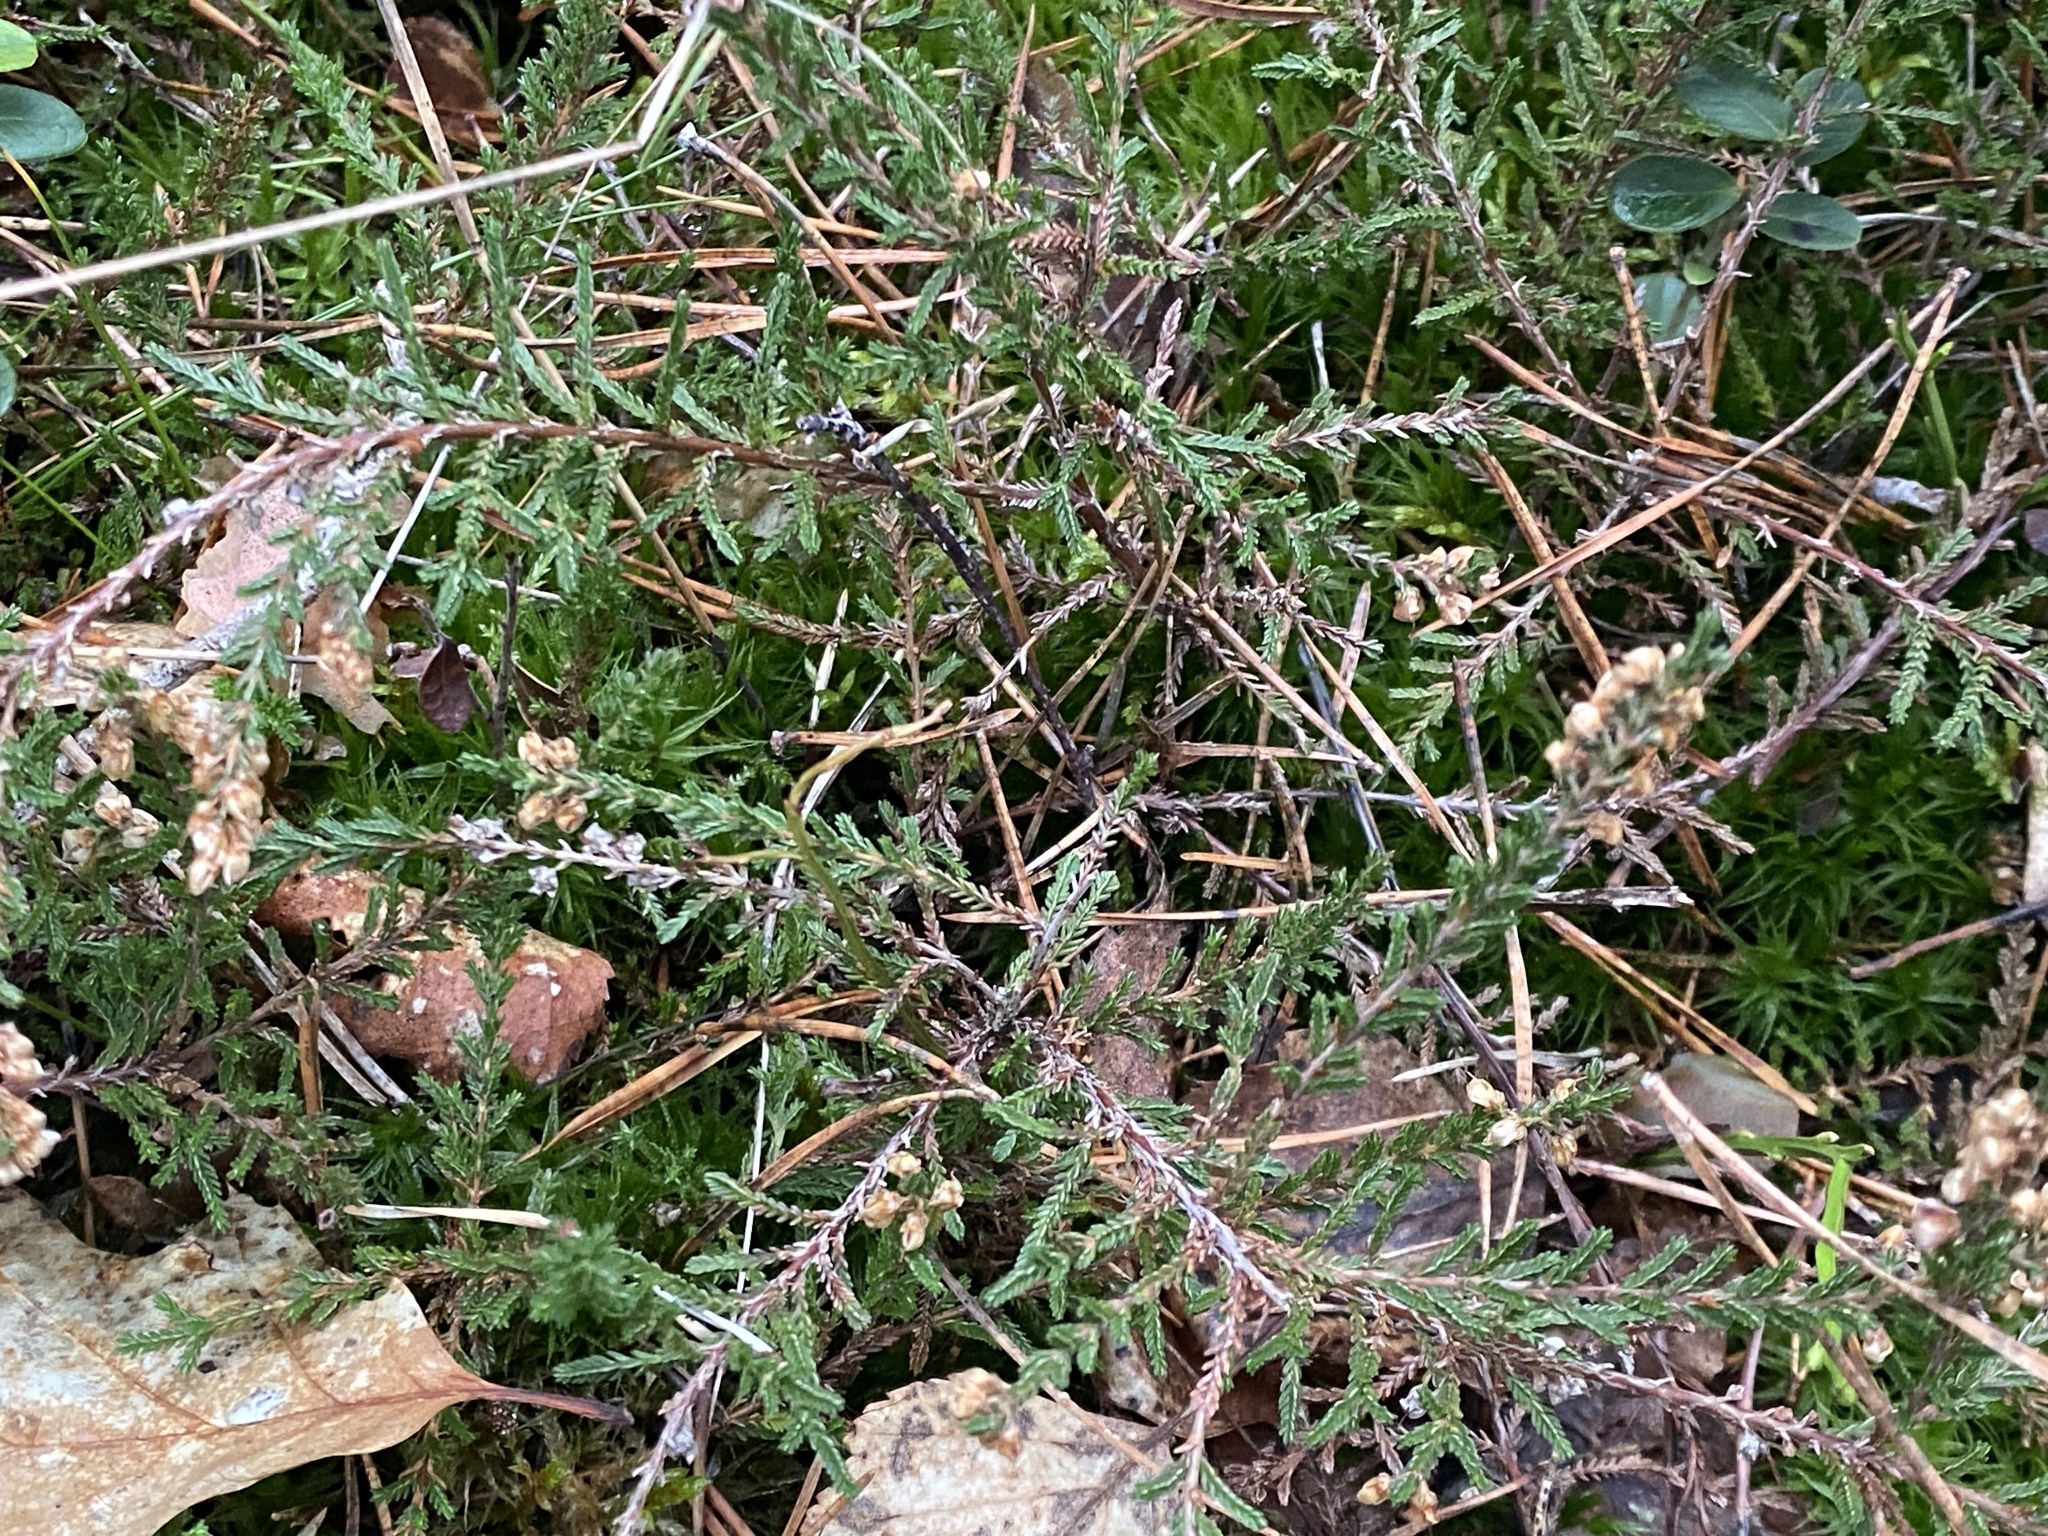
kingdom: Plantae
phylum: Tracheophyta
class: Magnoliopsida
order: Ericales
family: Ericaceae
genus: Calluna
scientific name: Calluna vulgaris
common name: Heather
